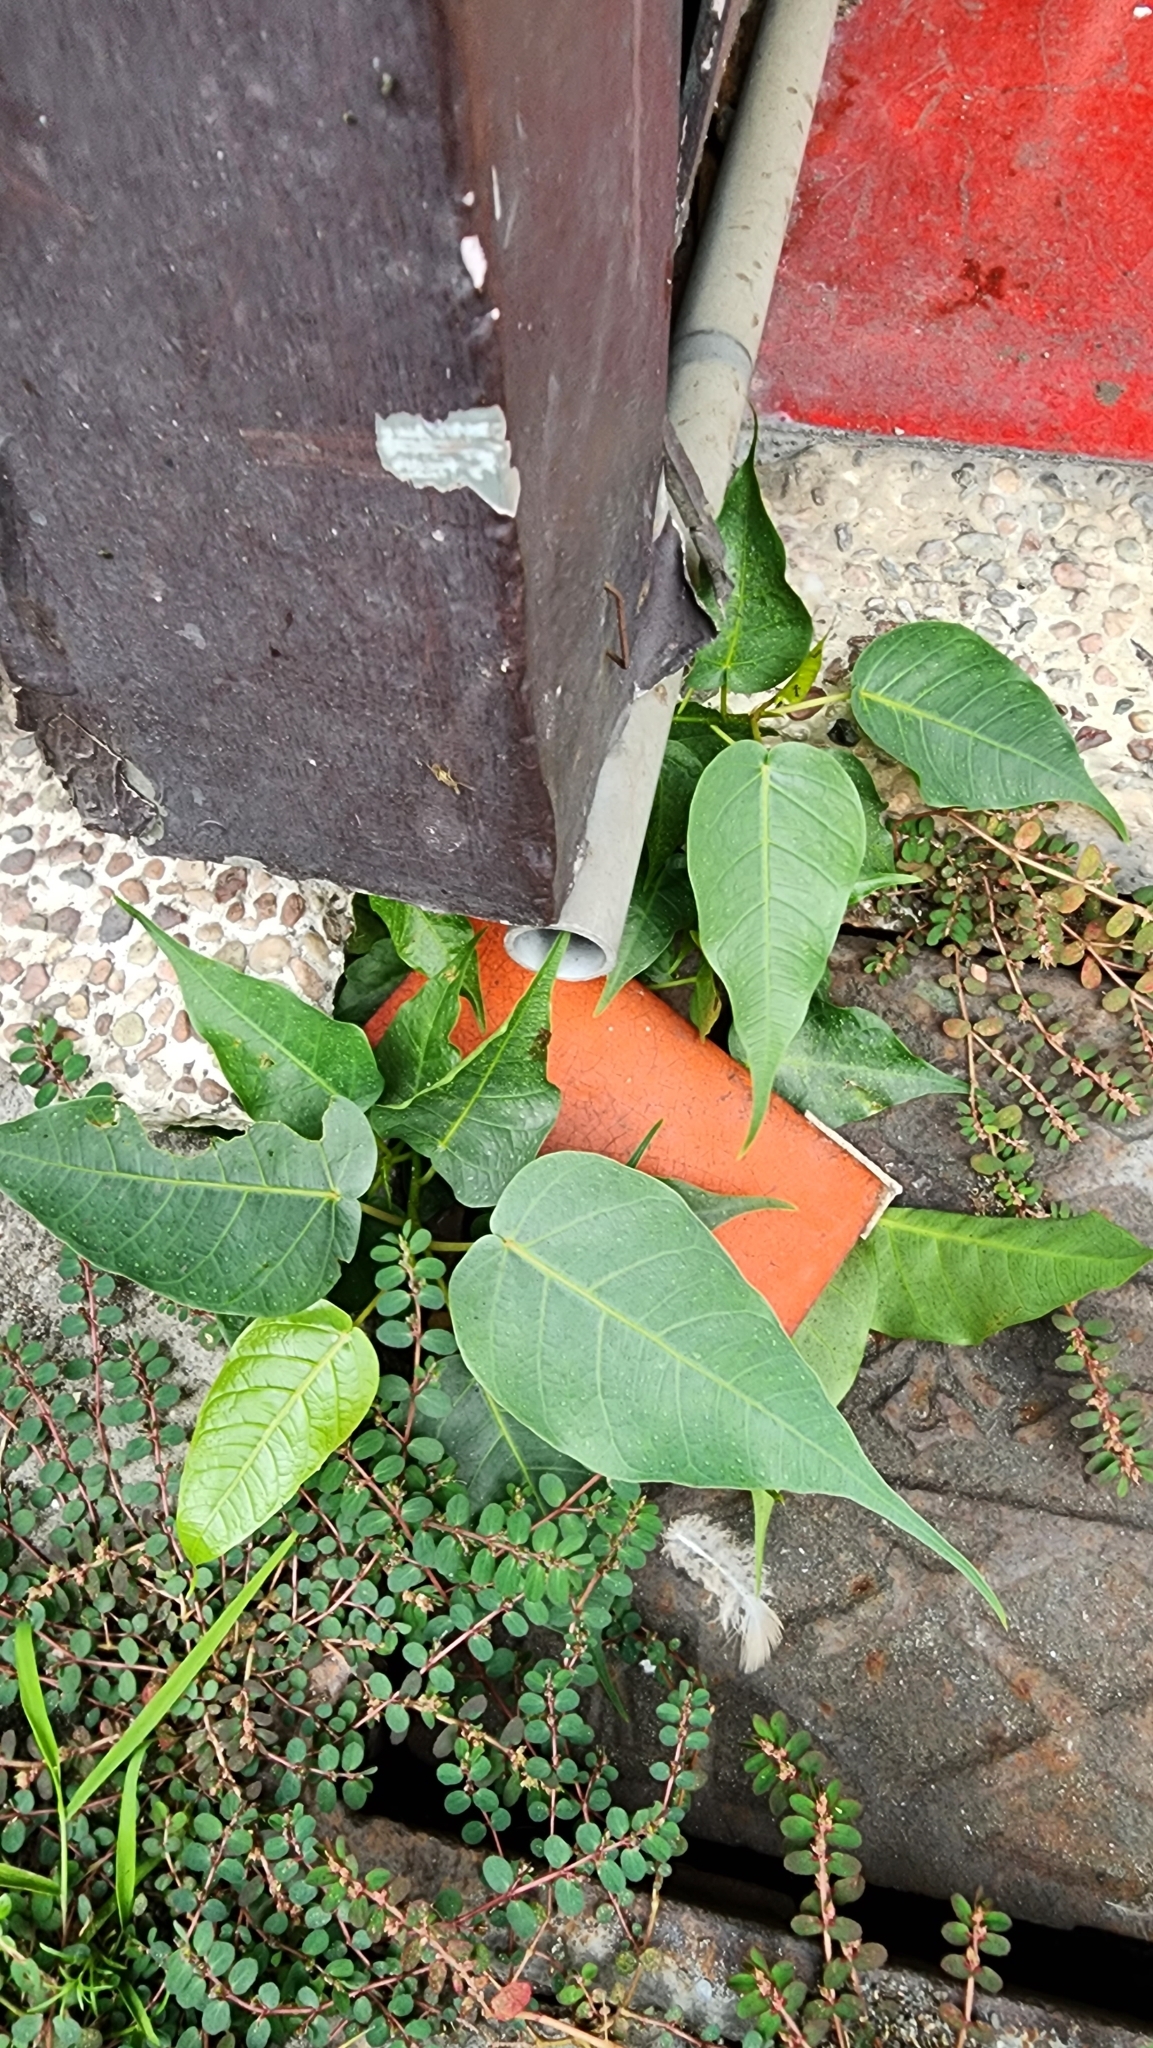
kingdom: Plantae
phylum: Tracheophyta
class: Magnoliopsida
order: Rosales
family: Moraceae
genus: Ficus
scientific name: Ficus religiosa
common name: Bodhi tree
